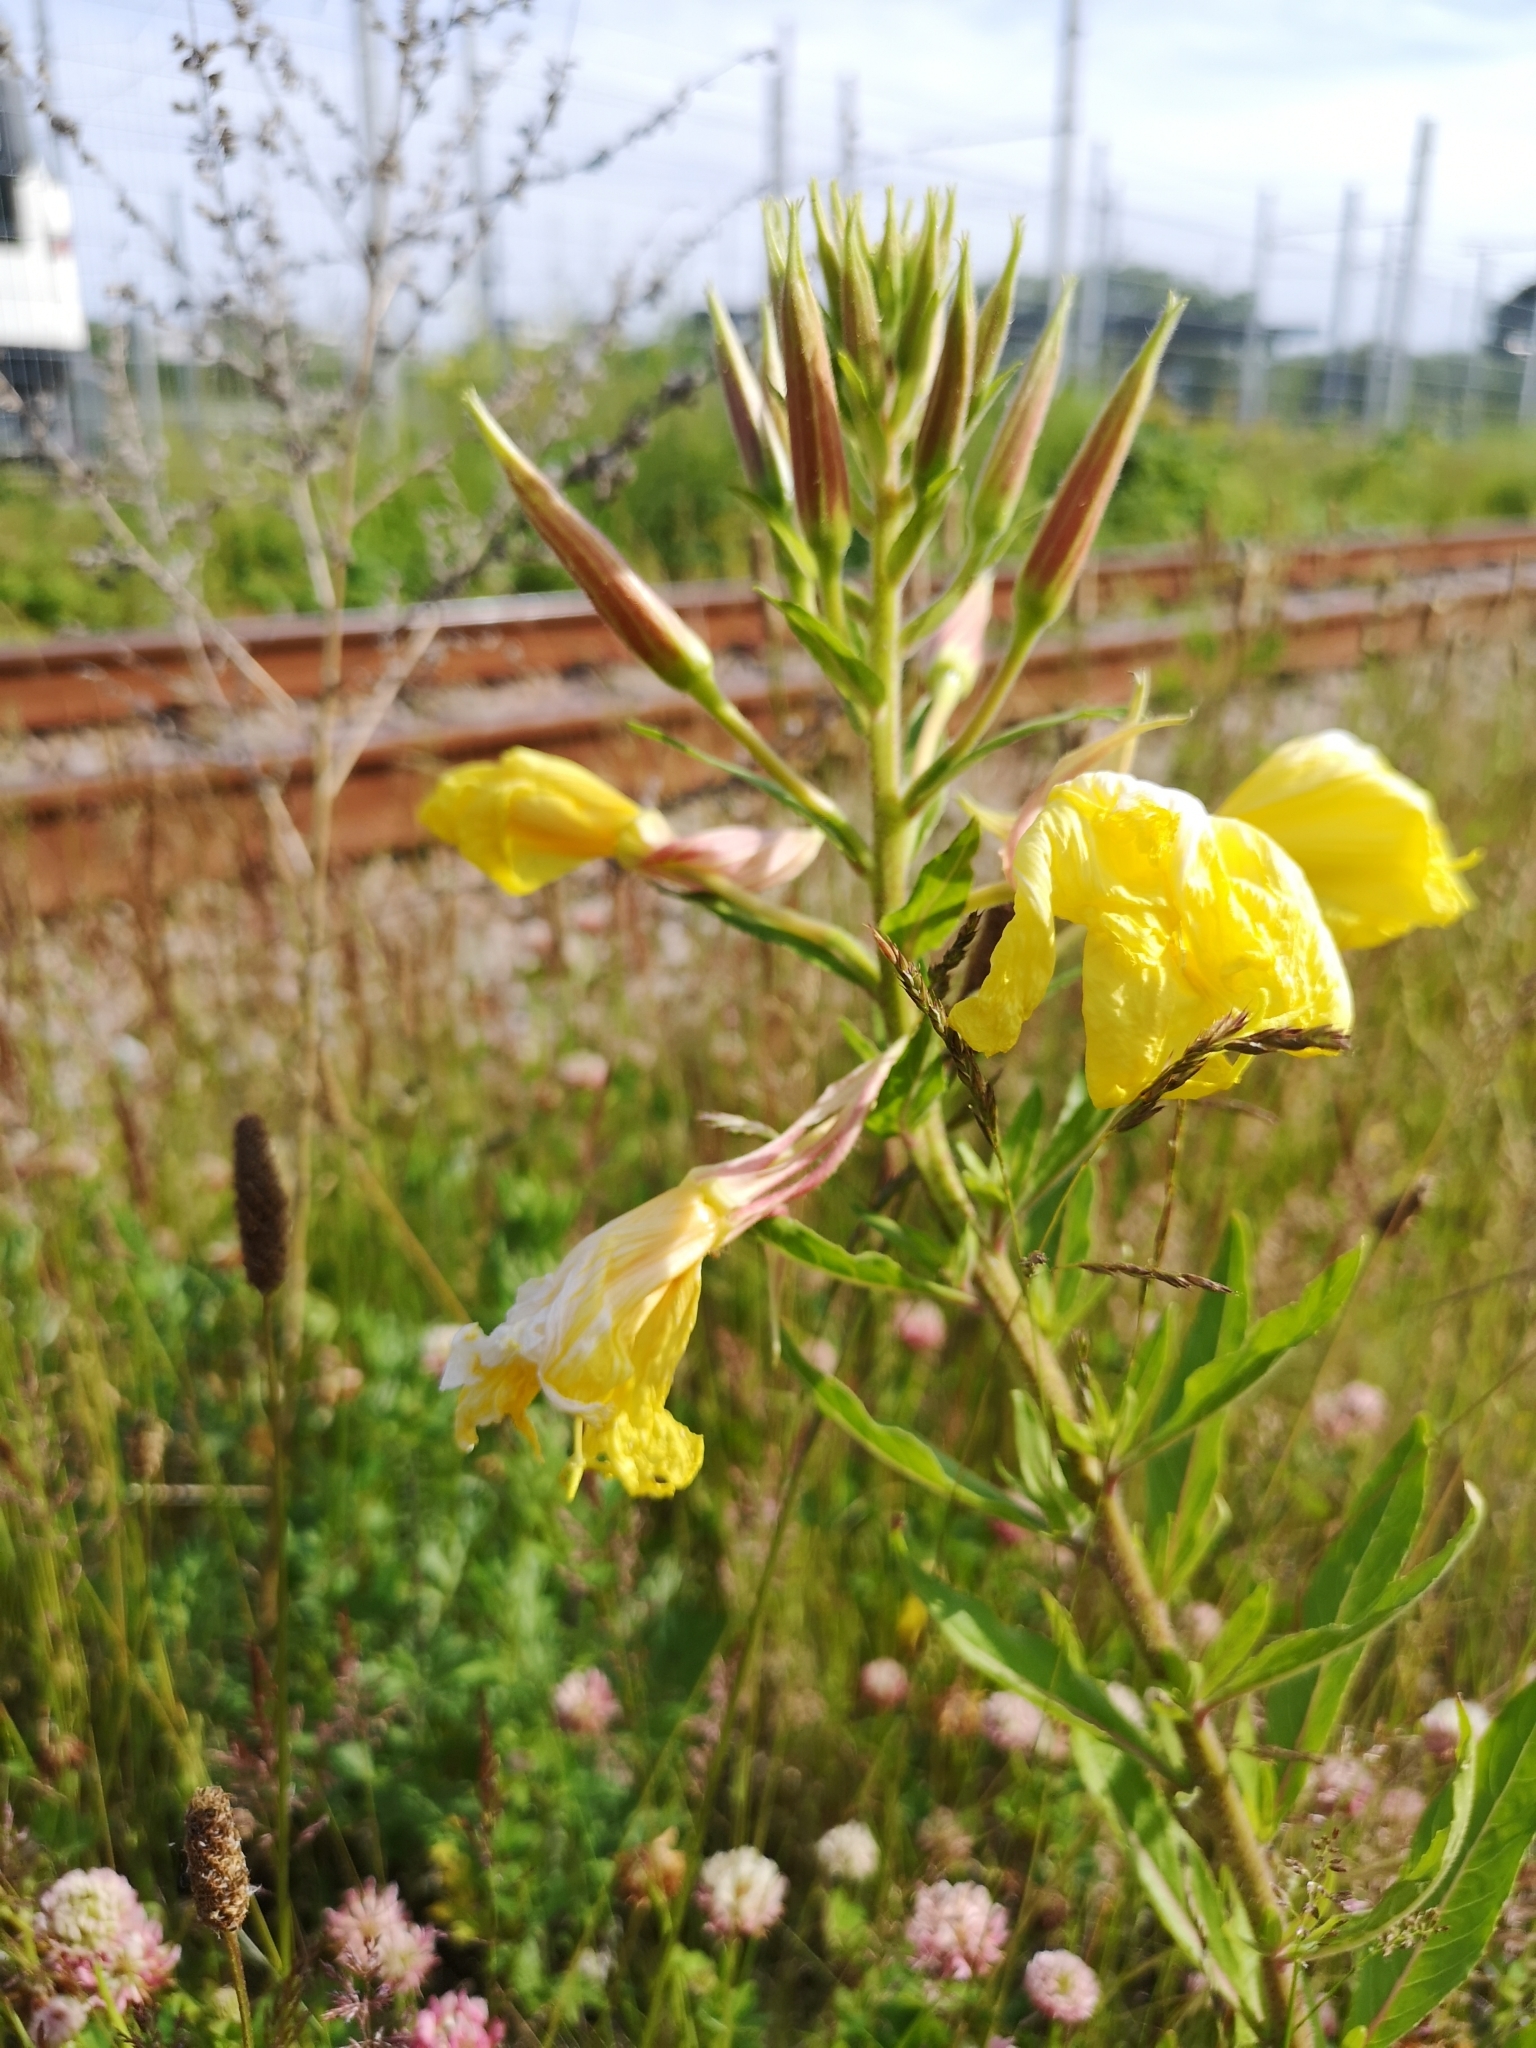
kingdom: Plantae
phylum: Tracheophyta
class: Magnoliopsida
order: Myrtales
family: Onagraceae
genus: Oenothera
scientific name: Oenothera glazioviana
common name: Large-flowered evening-primrose
